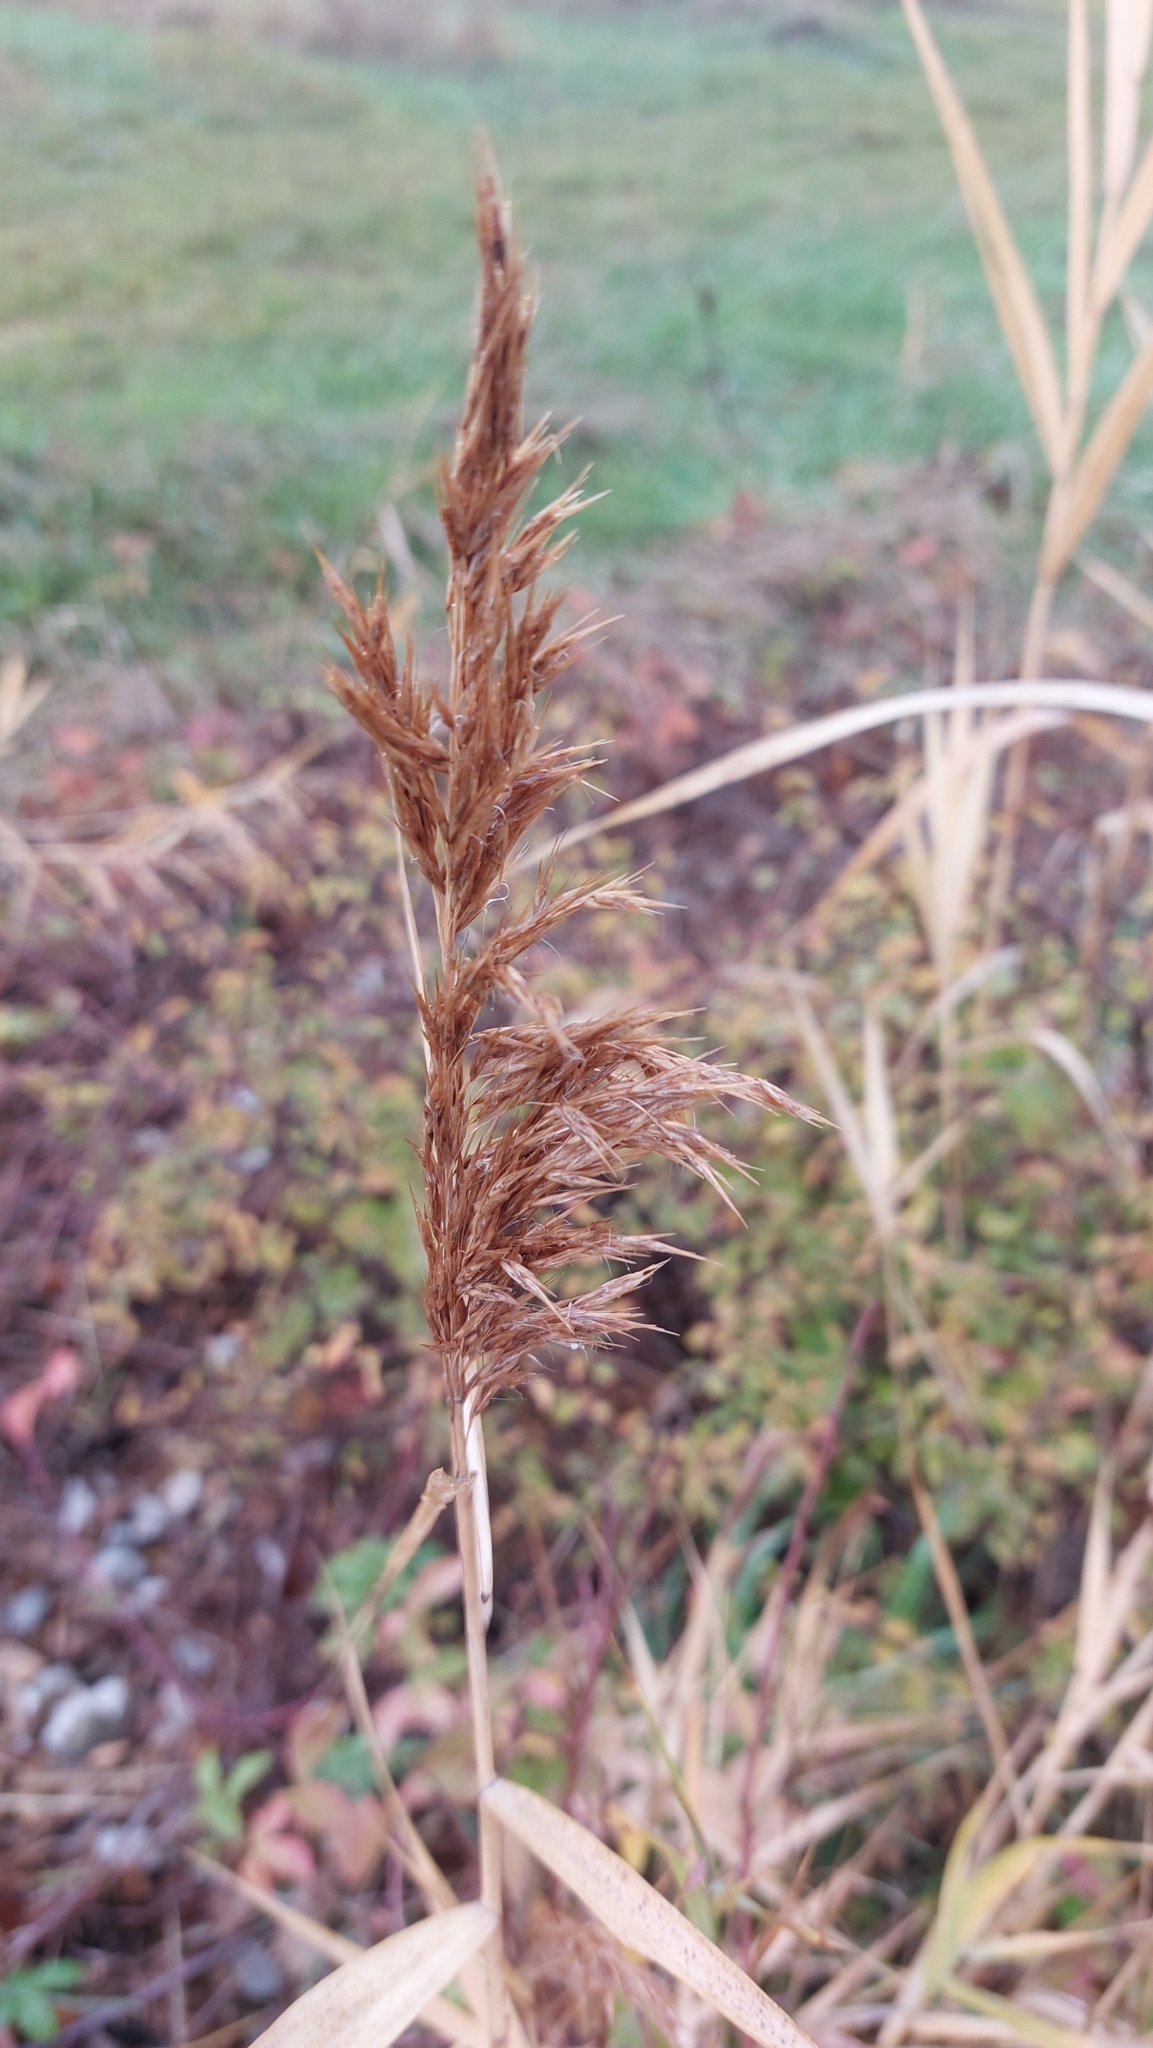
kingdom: Plantae
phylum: Tracheophyta
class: Liliopsida
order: Poales
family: Poaceae
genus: Phragmites
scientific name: Phragmites australis
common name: Common reed
